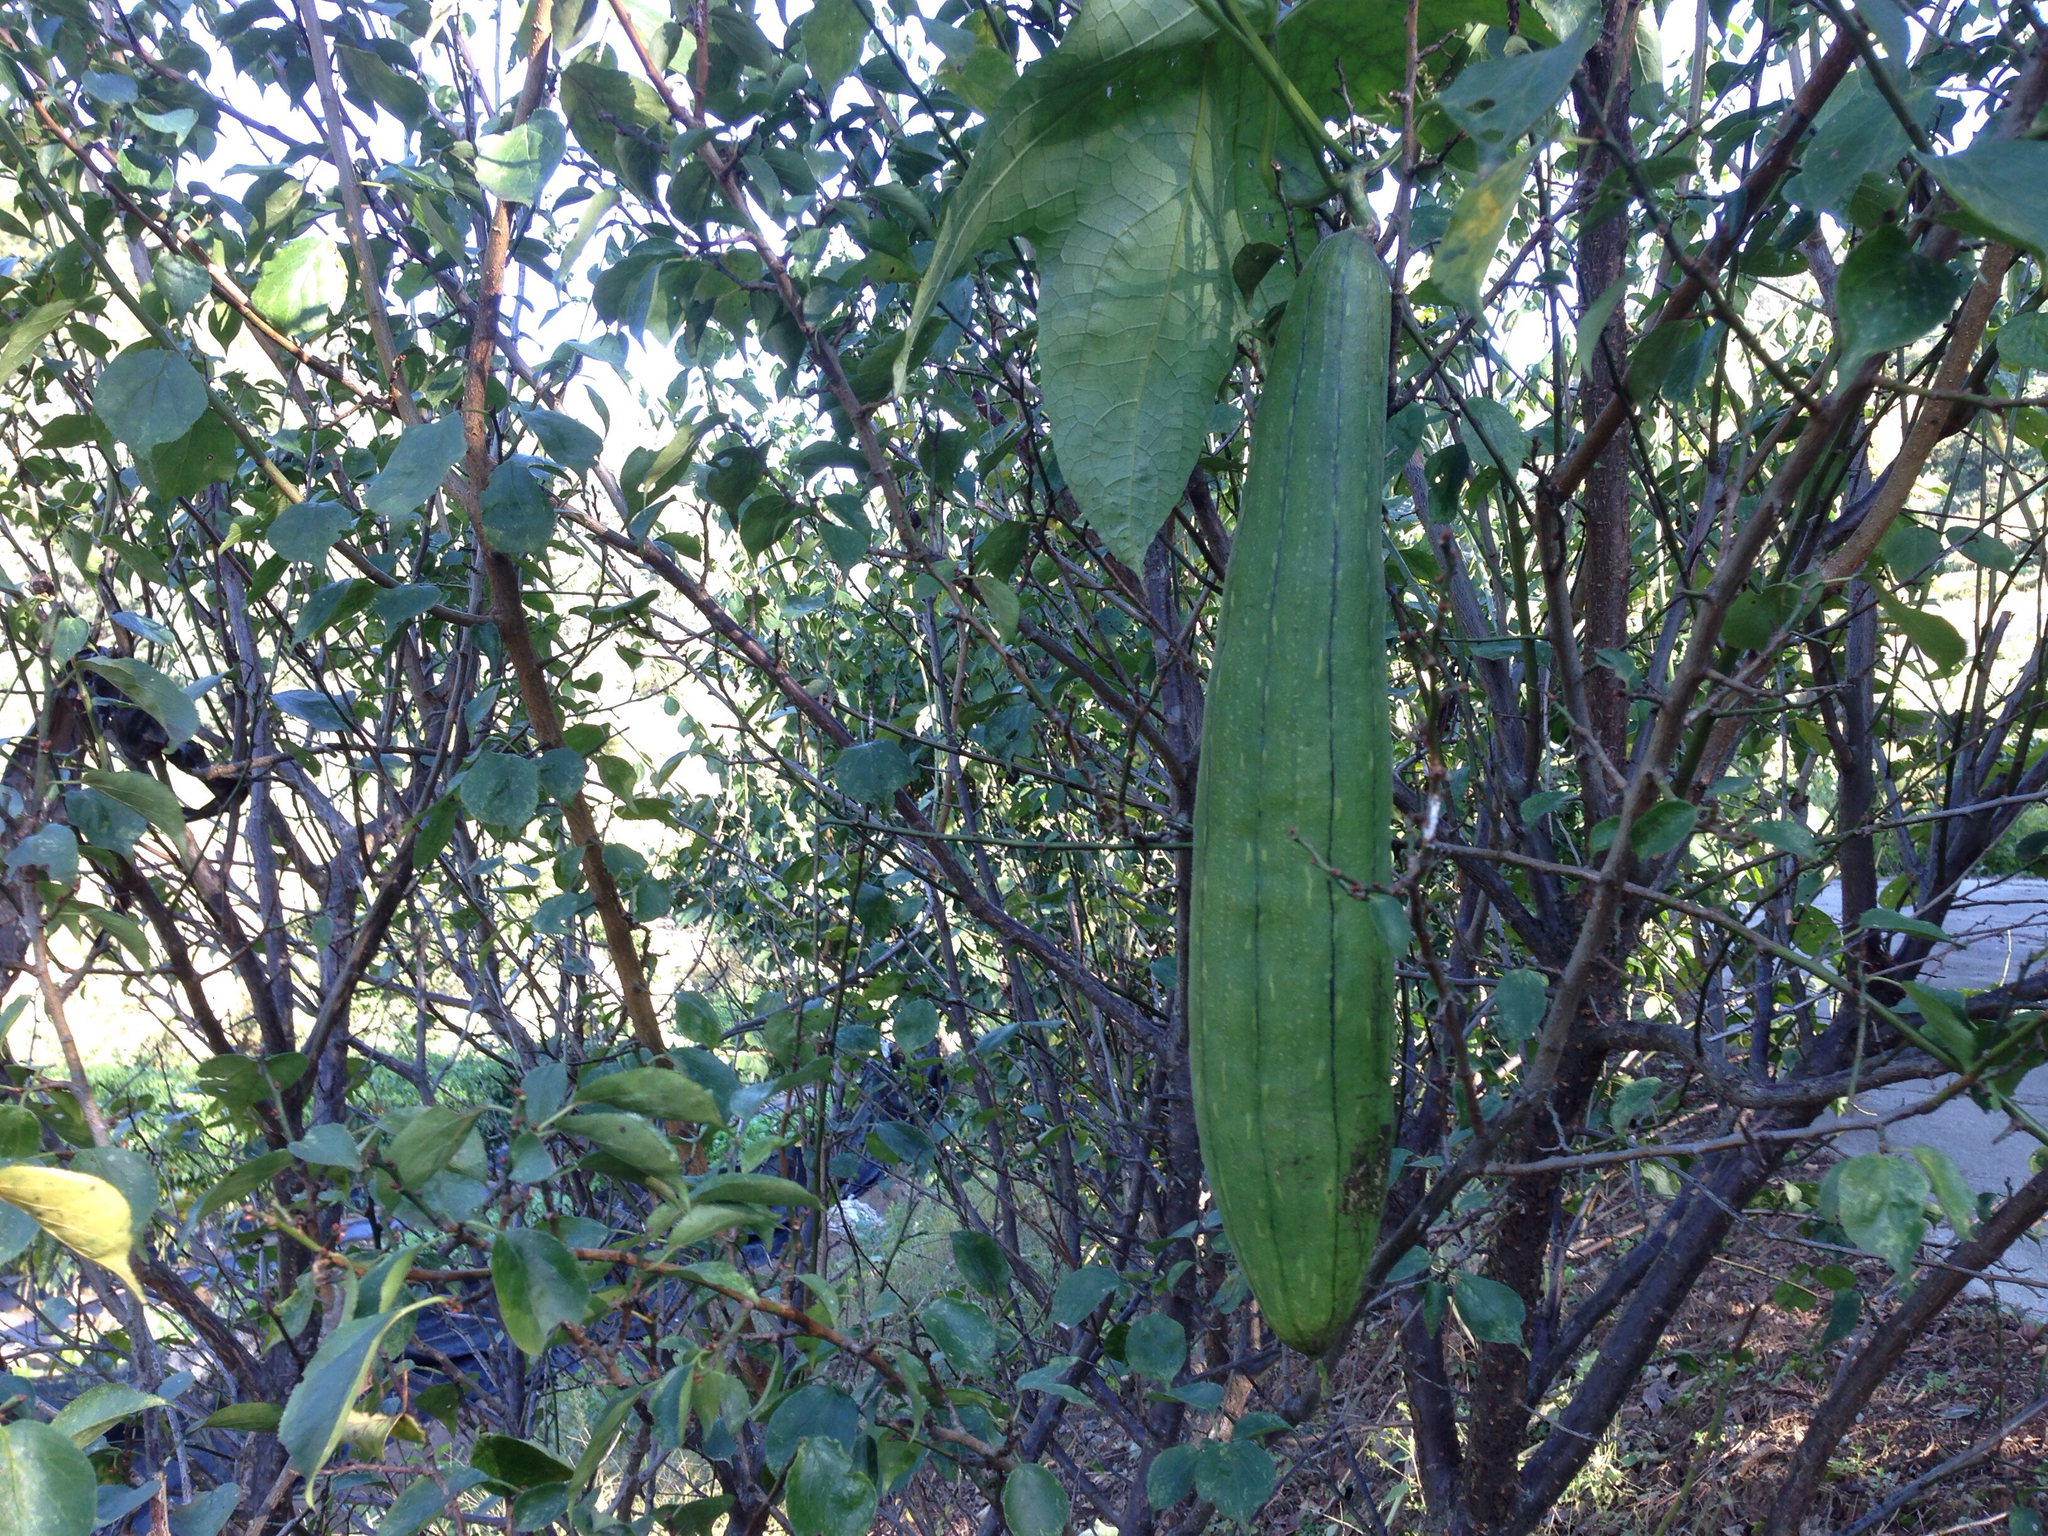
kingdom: Plantae
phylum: Tracheophyta
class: Magnoliopsida
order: Cucurbitales
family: Cucurbitaceae
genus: Luffa
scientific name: Luffa aegyptiaca
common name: Sponge gourd
